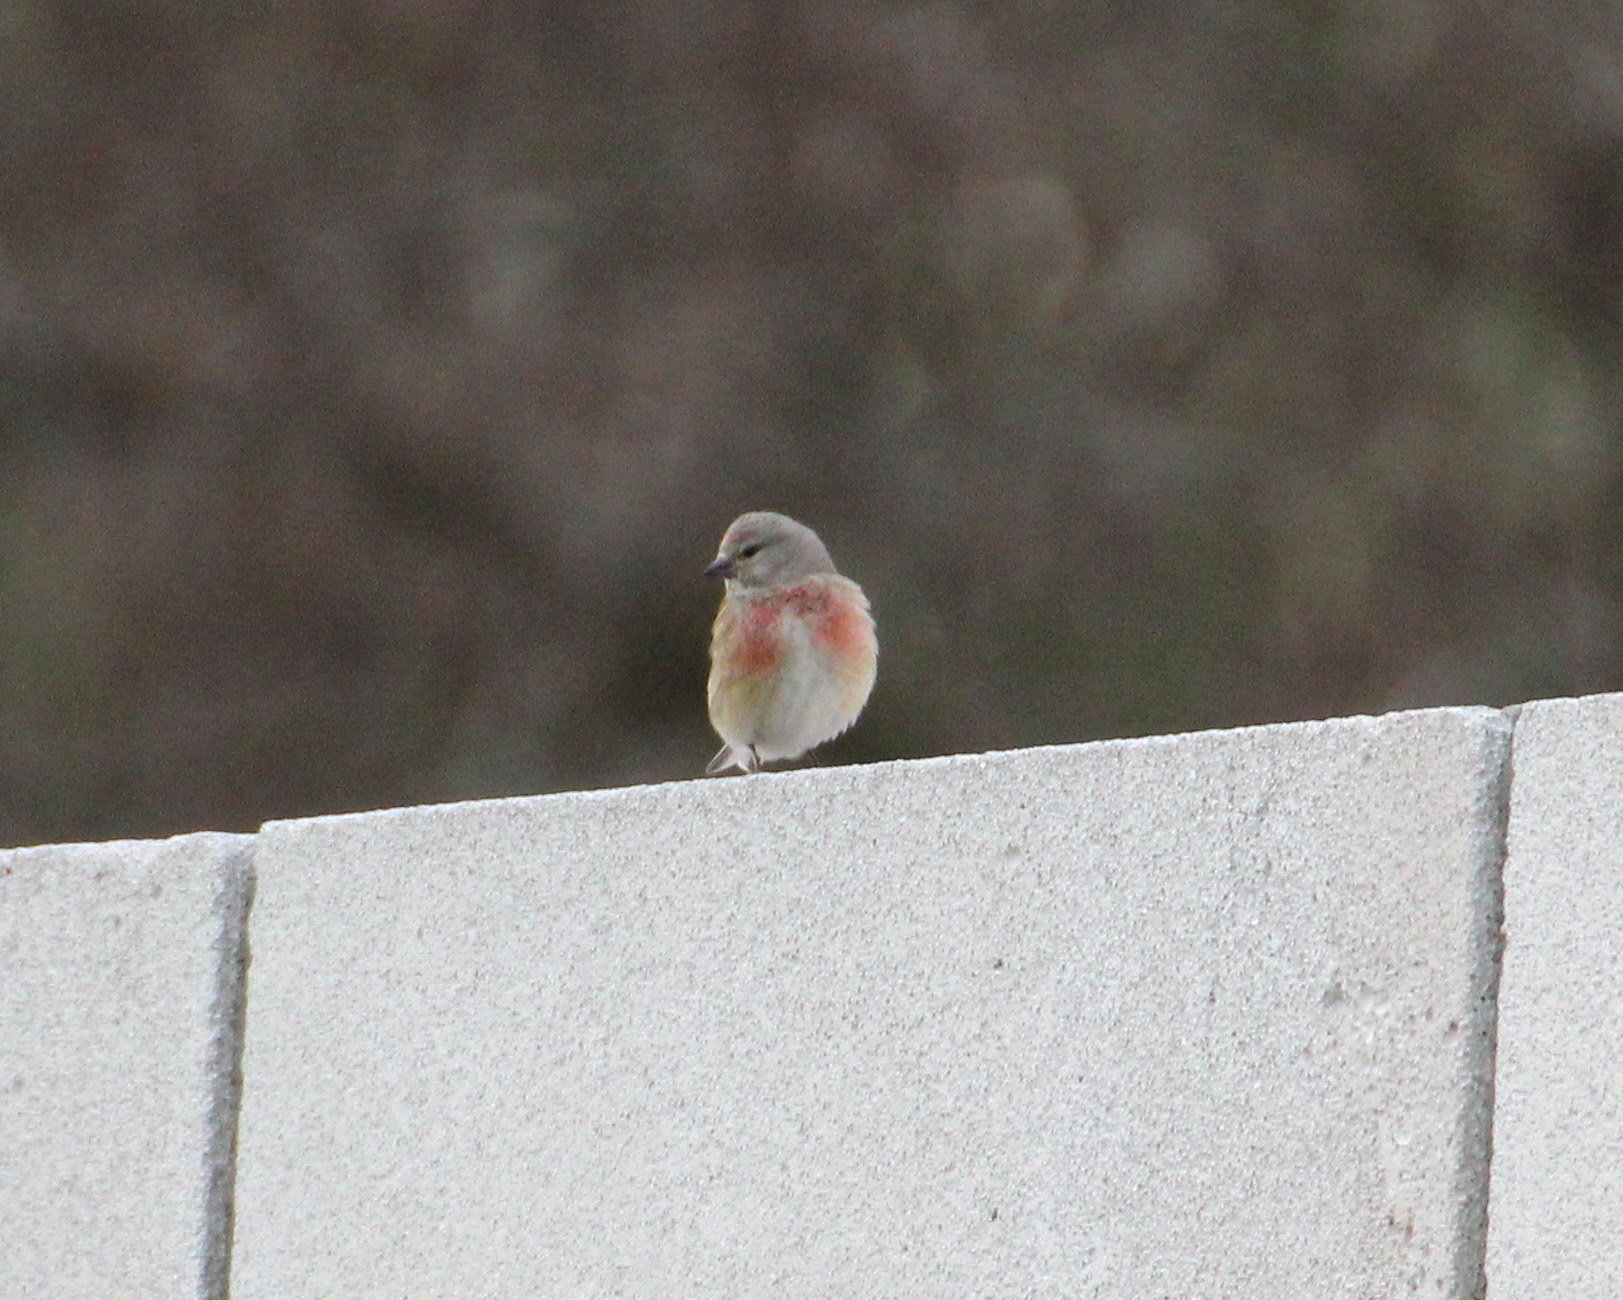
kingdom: Animalia
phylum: Chordata
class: Aves
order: Passeriformes
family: Fringillidae
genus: Linaria
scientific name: Linaria cannabina
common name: Common linnet
